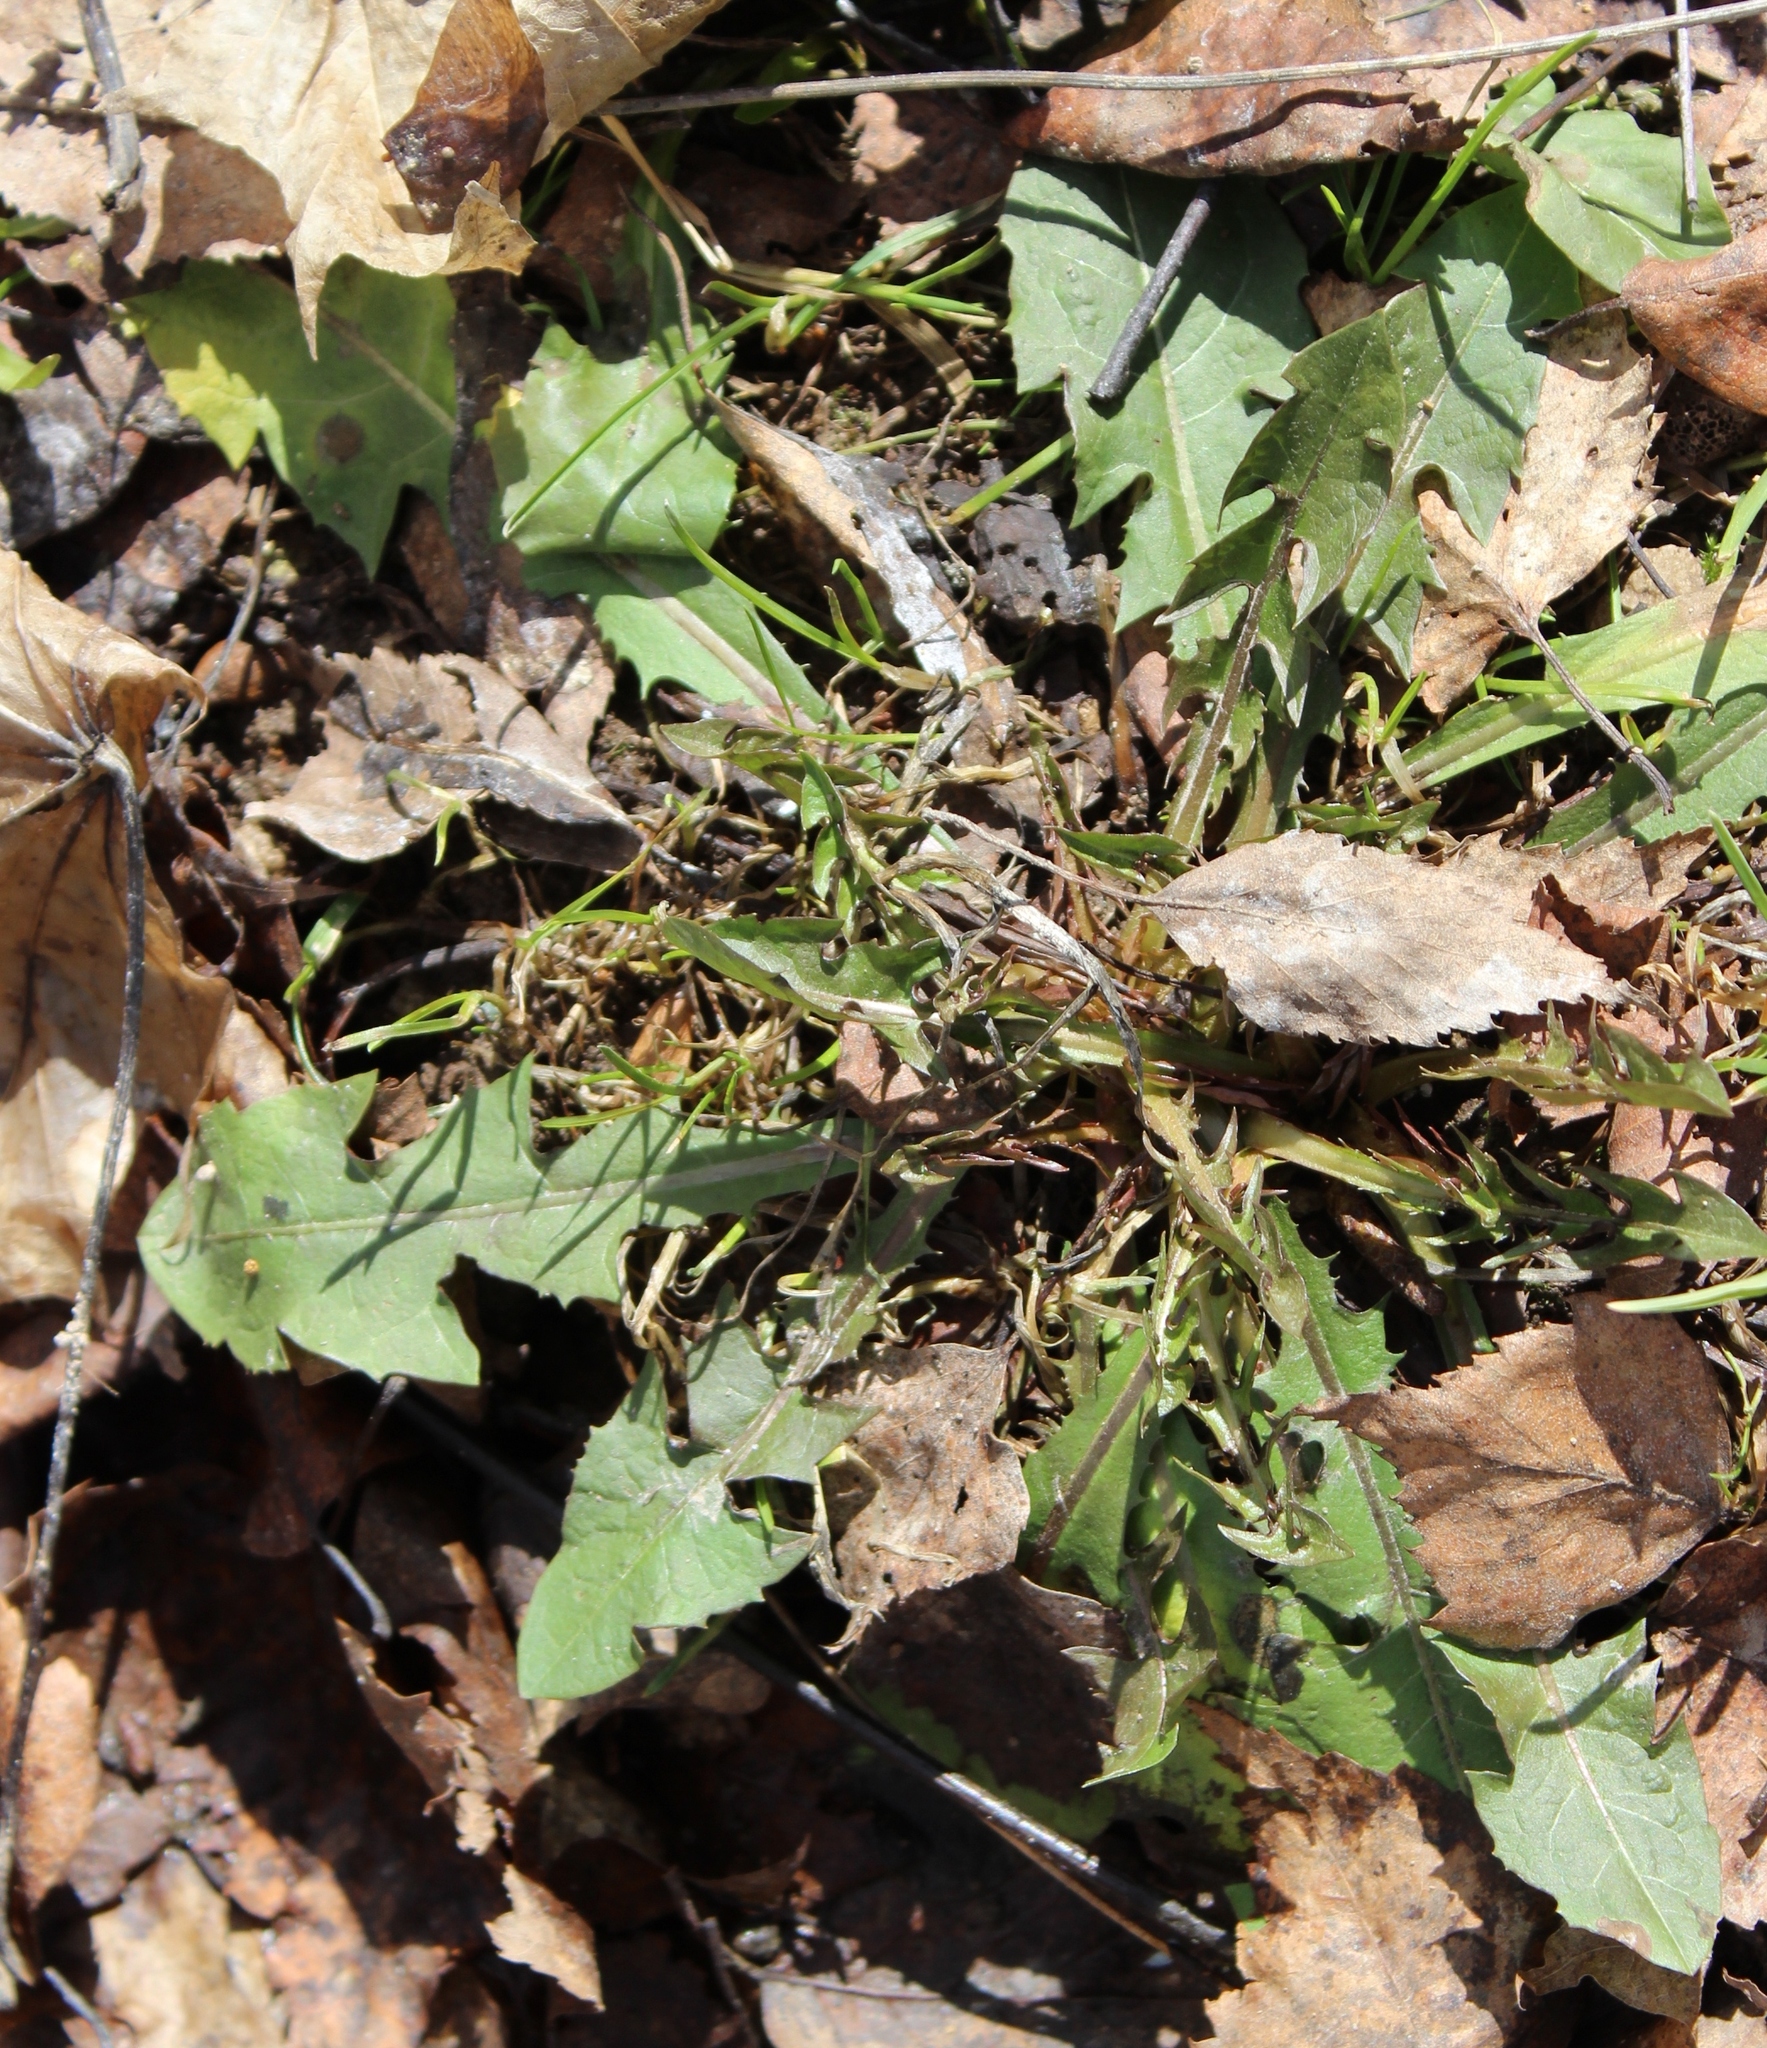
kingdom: Plantae
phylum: Tracheophyta
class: Magnoliopsida
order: Asterales
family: Asteraceae
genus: Taraxacum
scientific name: Taraxacum officinale
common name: Common dandelion
